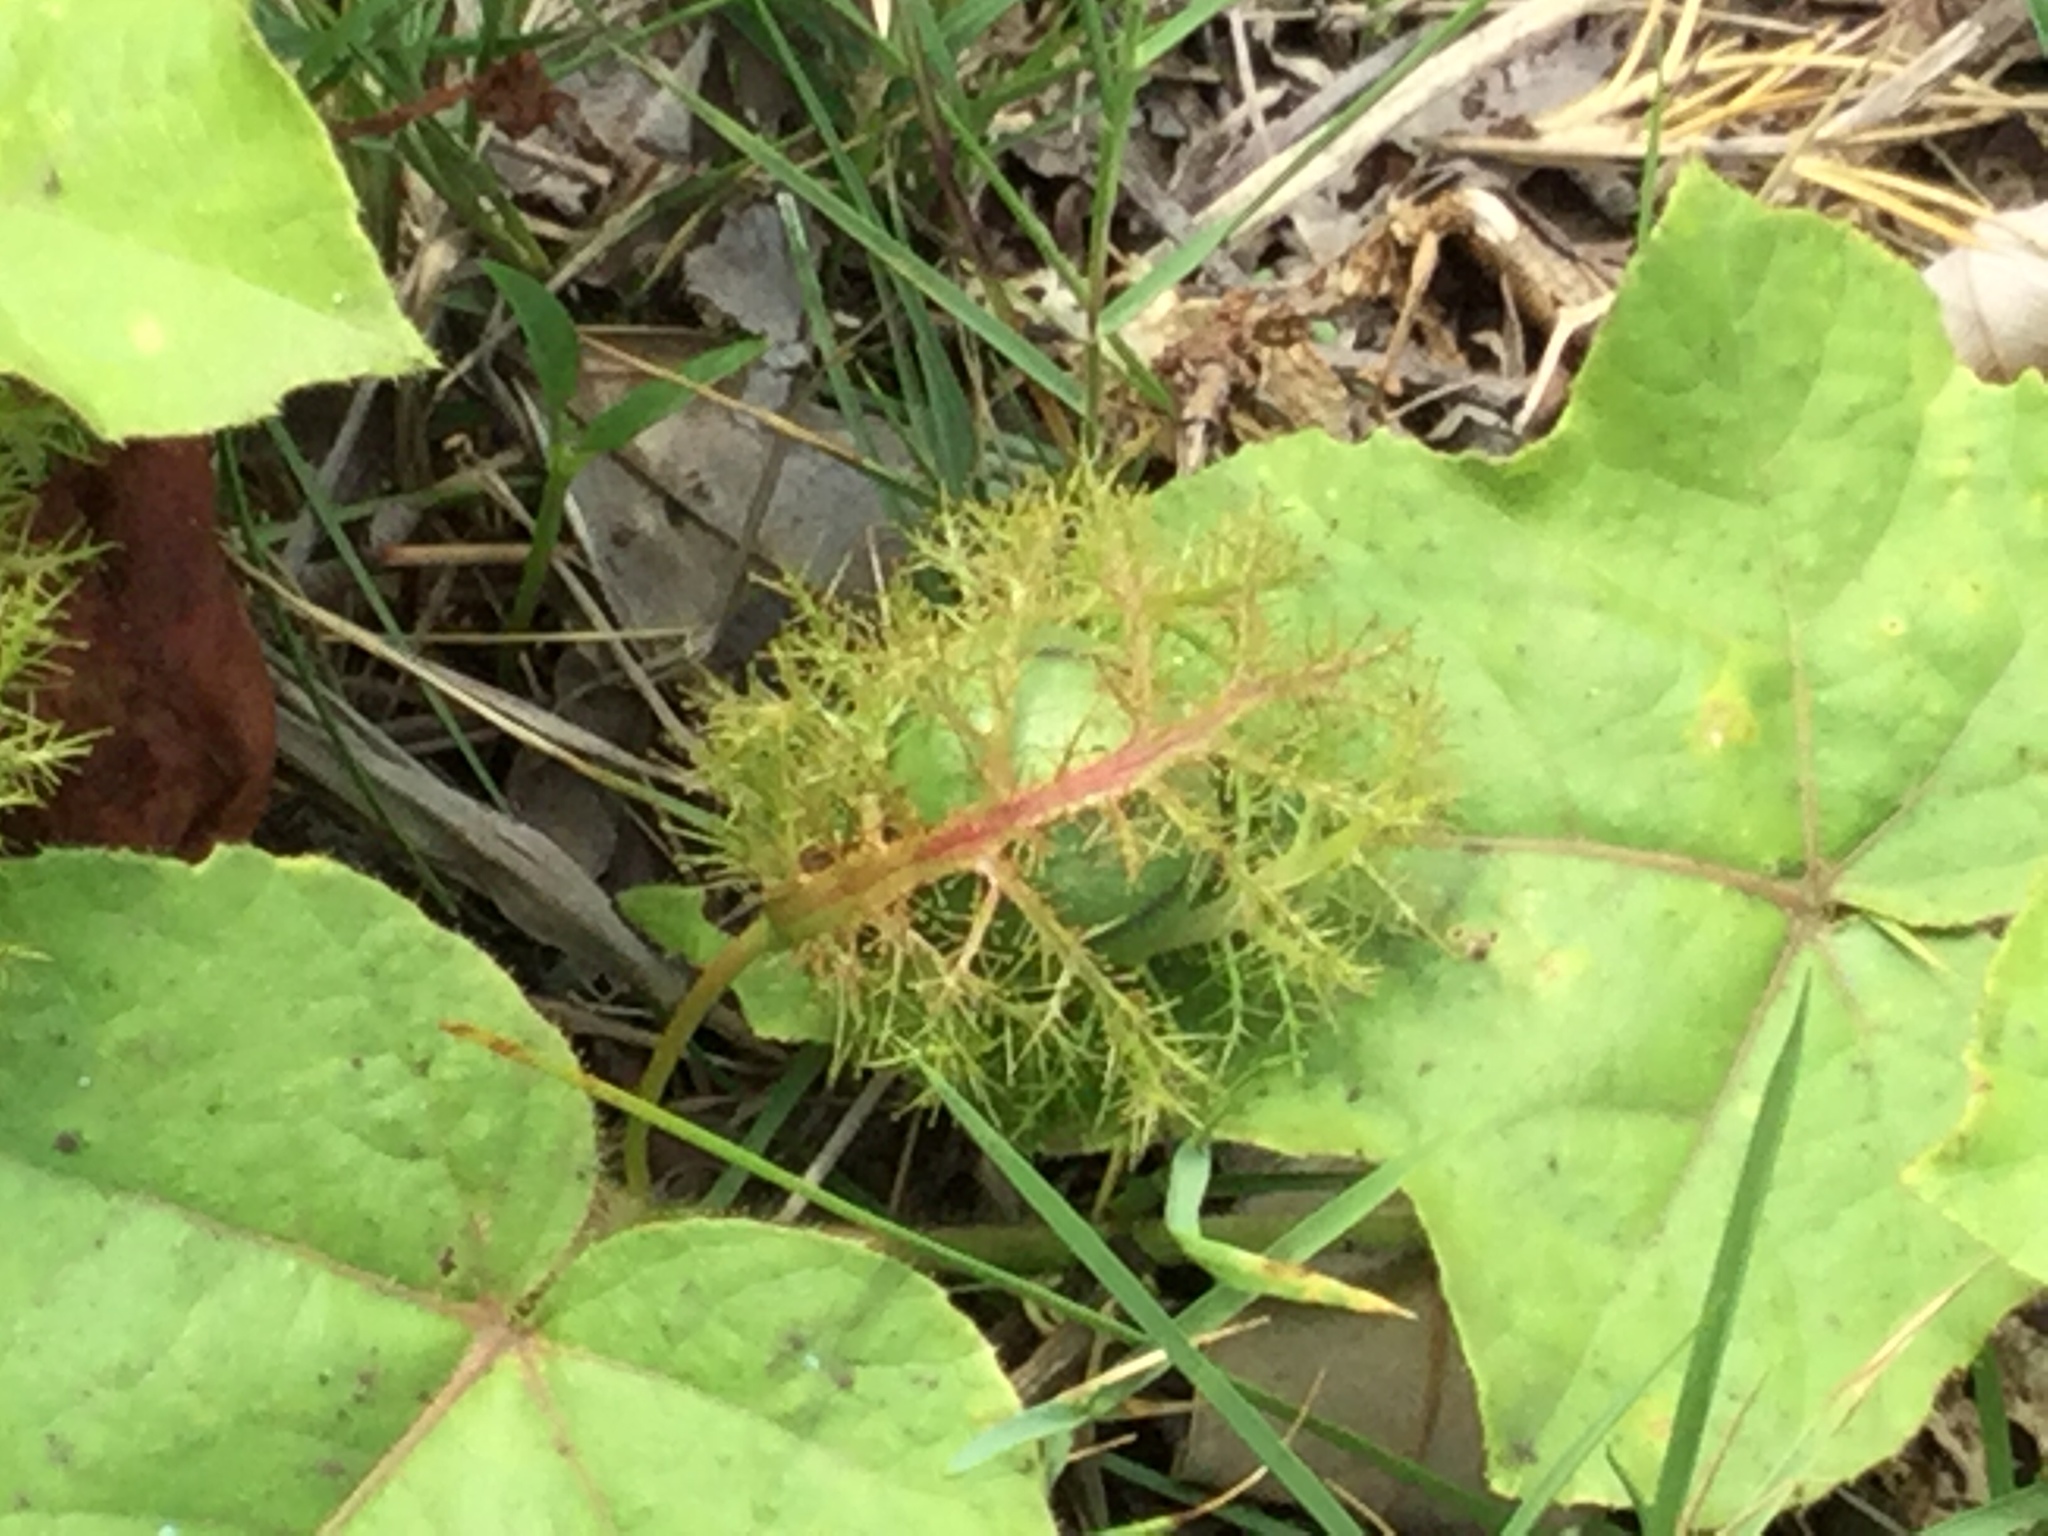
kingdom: Plantae
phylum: Tracheophyta
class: Magnoliopsida
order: Malpighiales
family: Passifloraceae
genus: Passiflora
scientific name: Passiflora vesicaria
